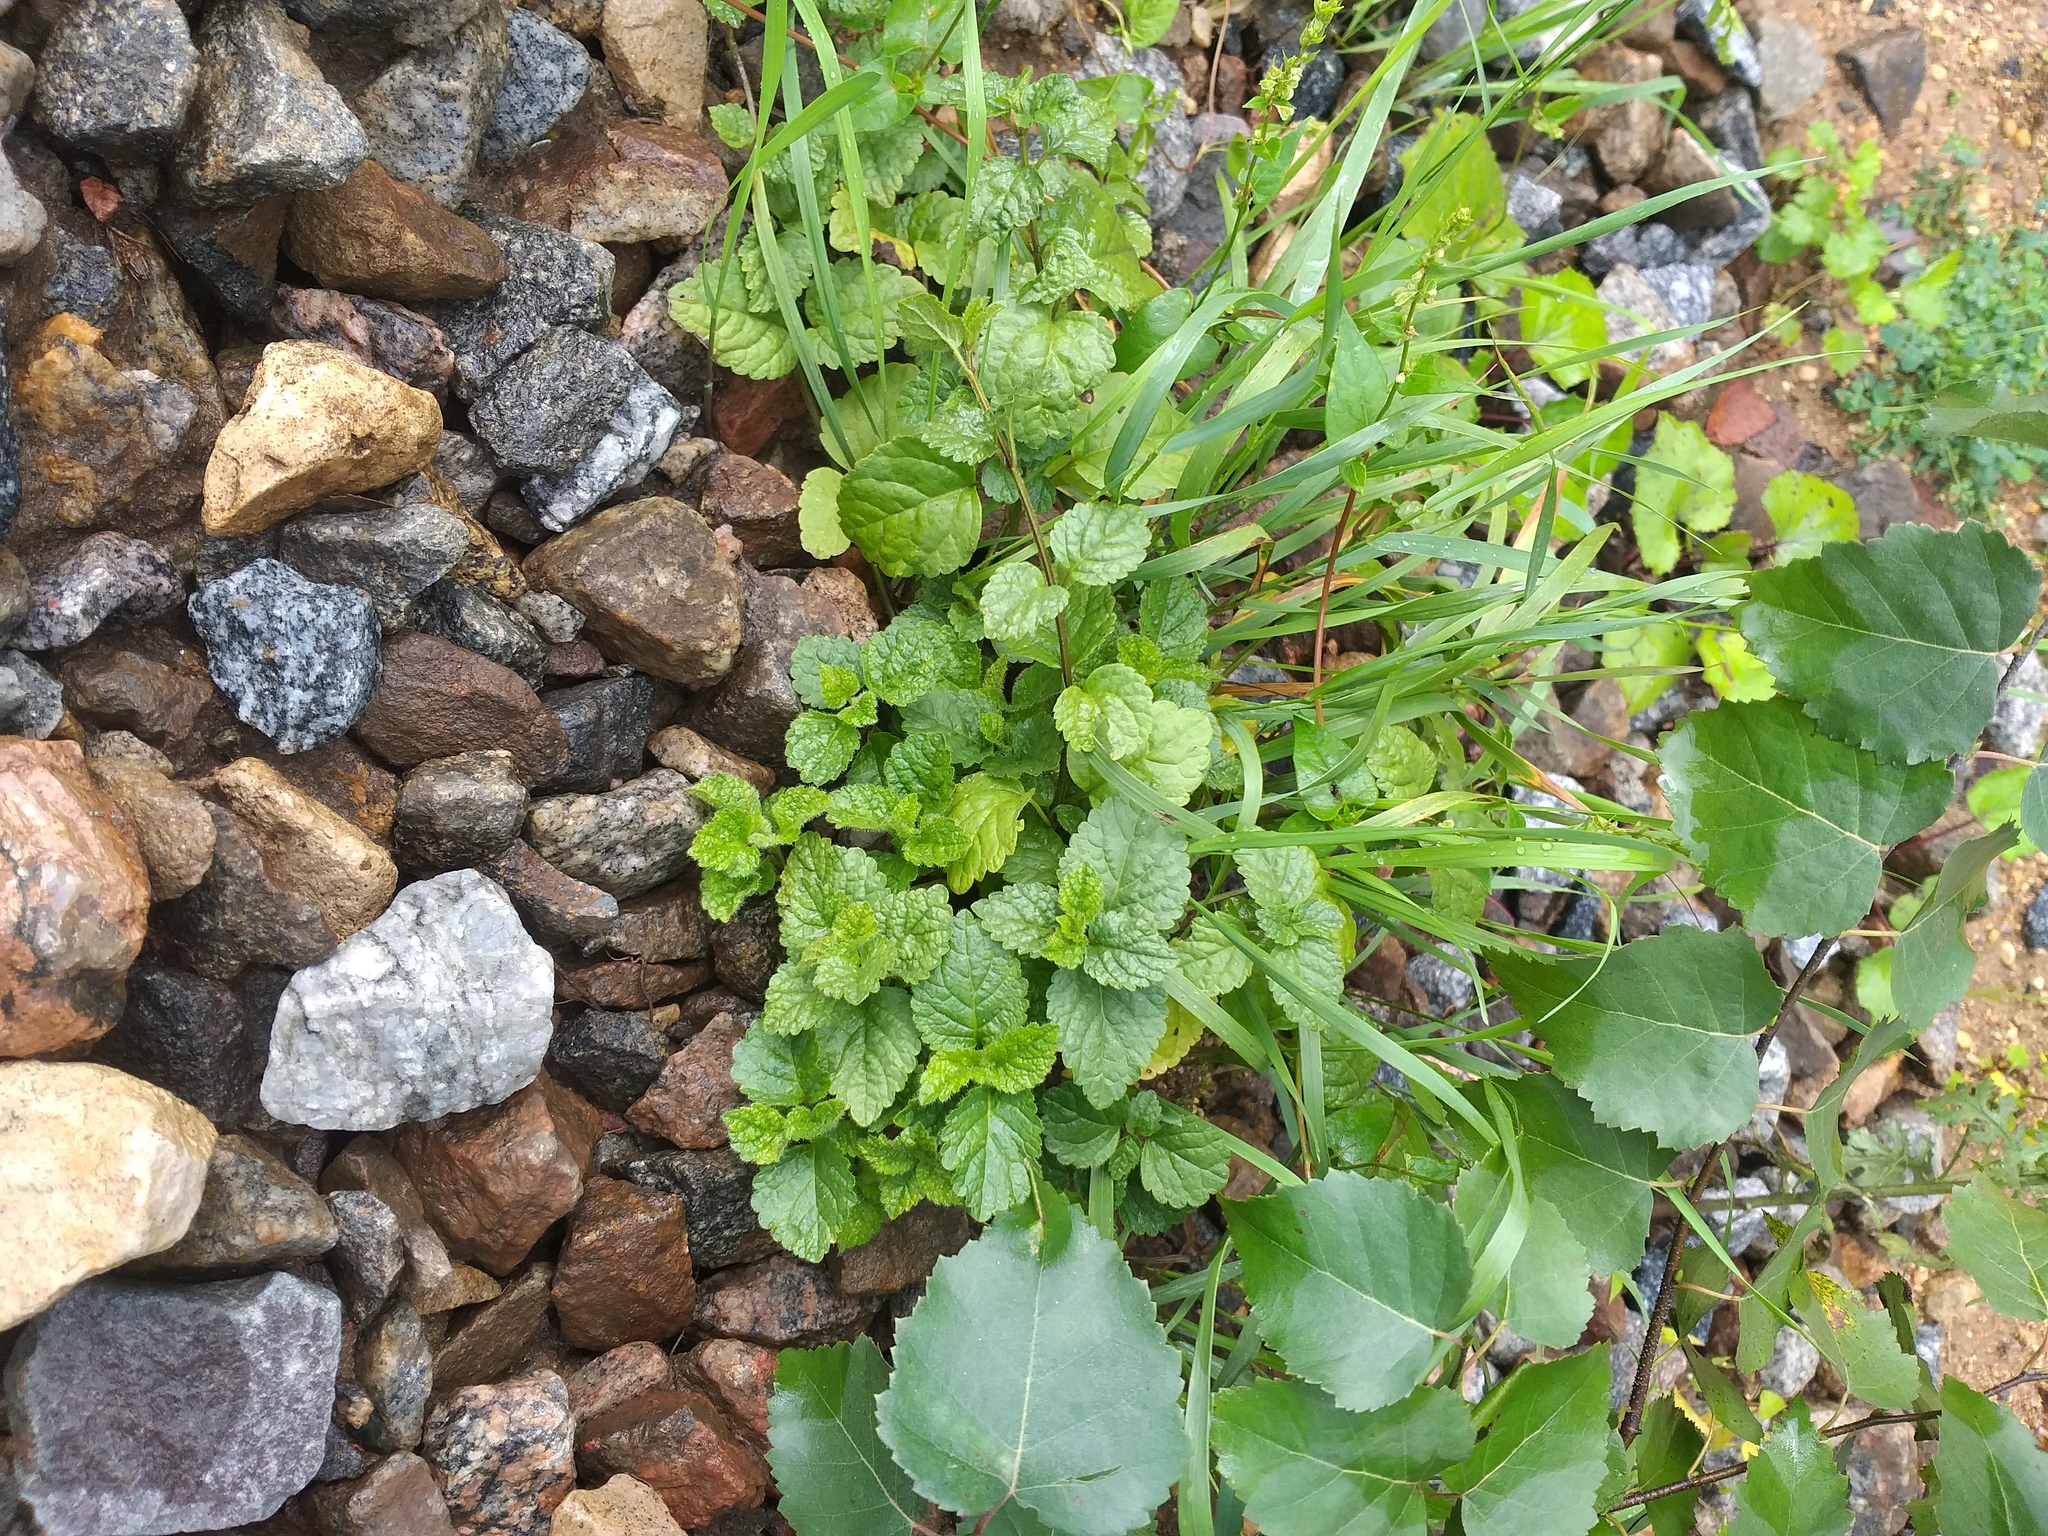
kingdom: Plantae
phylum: Tracheophyta
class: Magnoliopsida
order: Lamiales
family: Lamiaceae
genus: Lamium
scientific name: Lamium galeobdolon
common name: Yellow archangel
